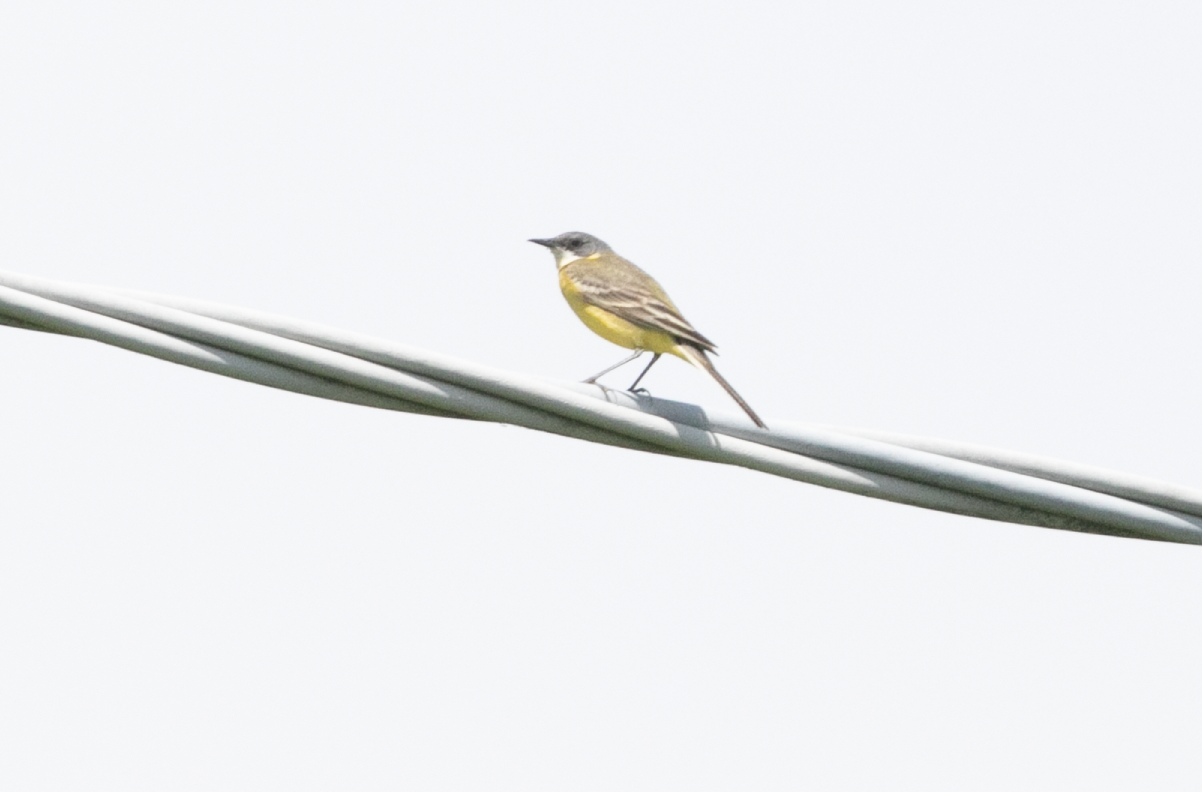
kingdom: Animalia
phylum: Chordata
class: Aves
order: Passeriformes
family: Motacillidae
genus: Motacilla
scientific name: Motacilla flava
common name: Western yellow wagtail
